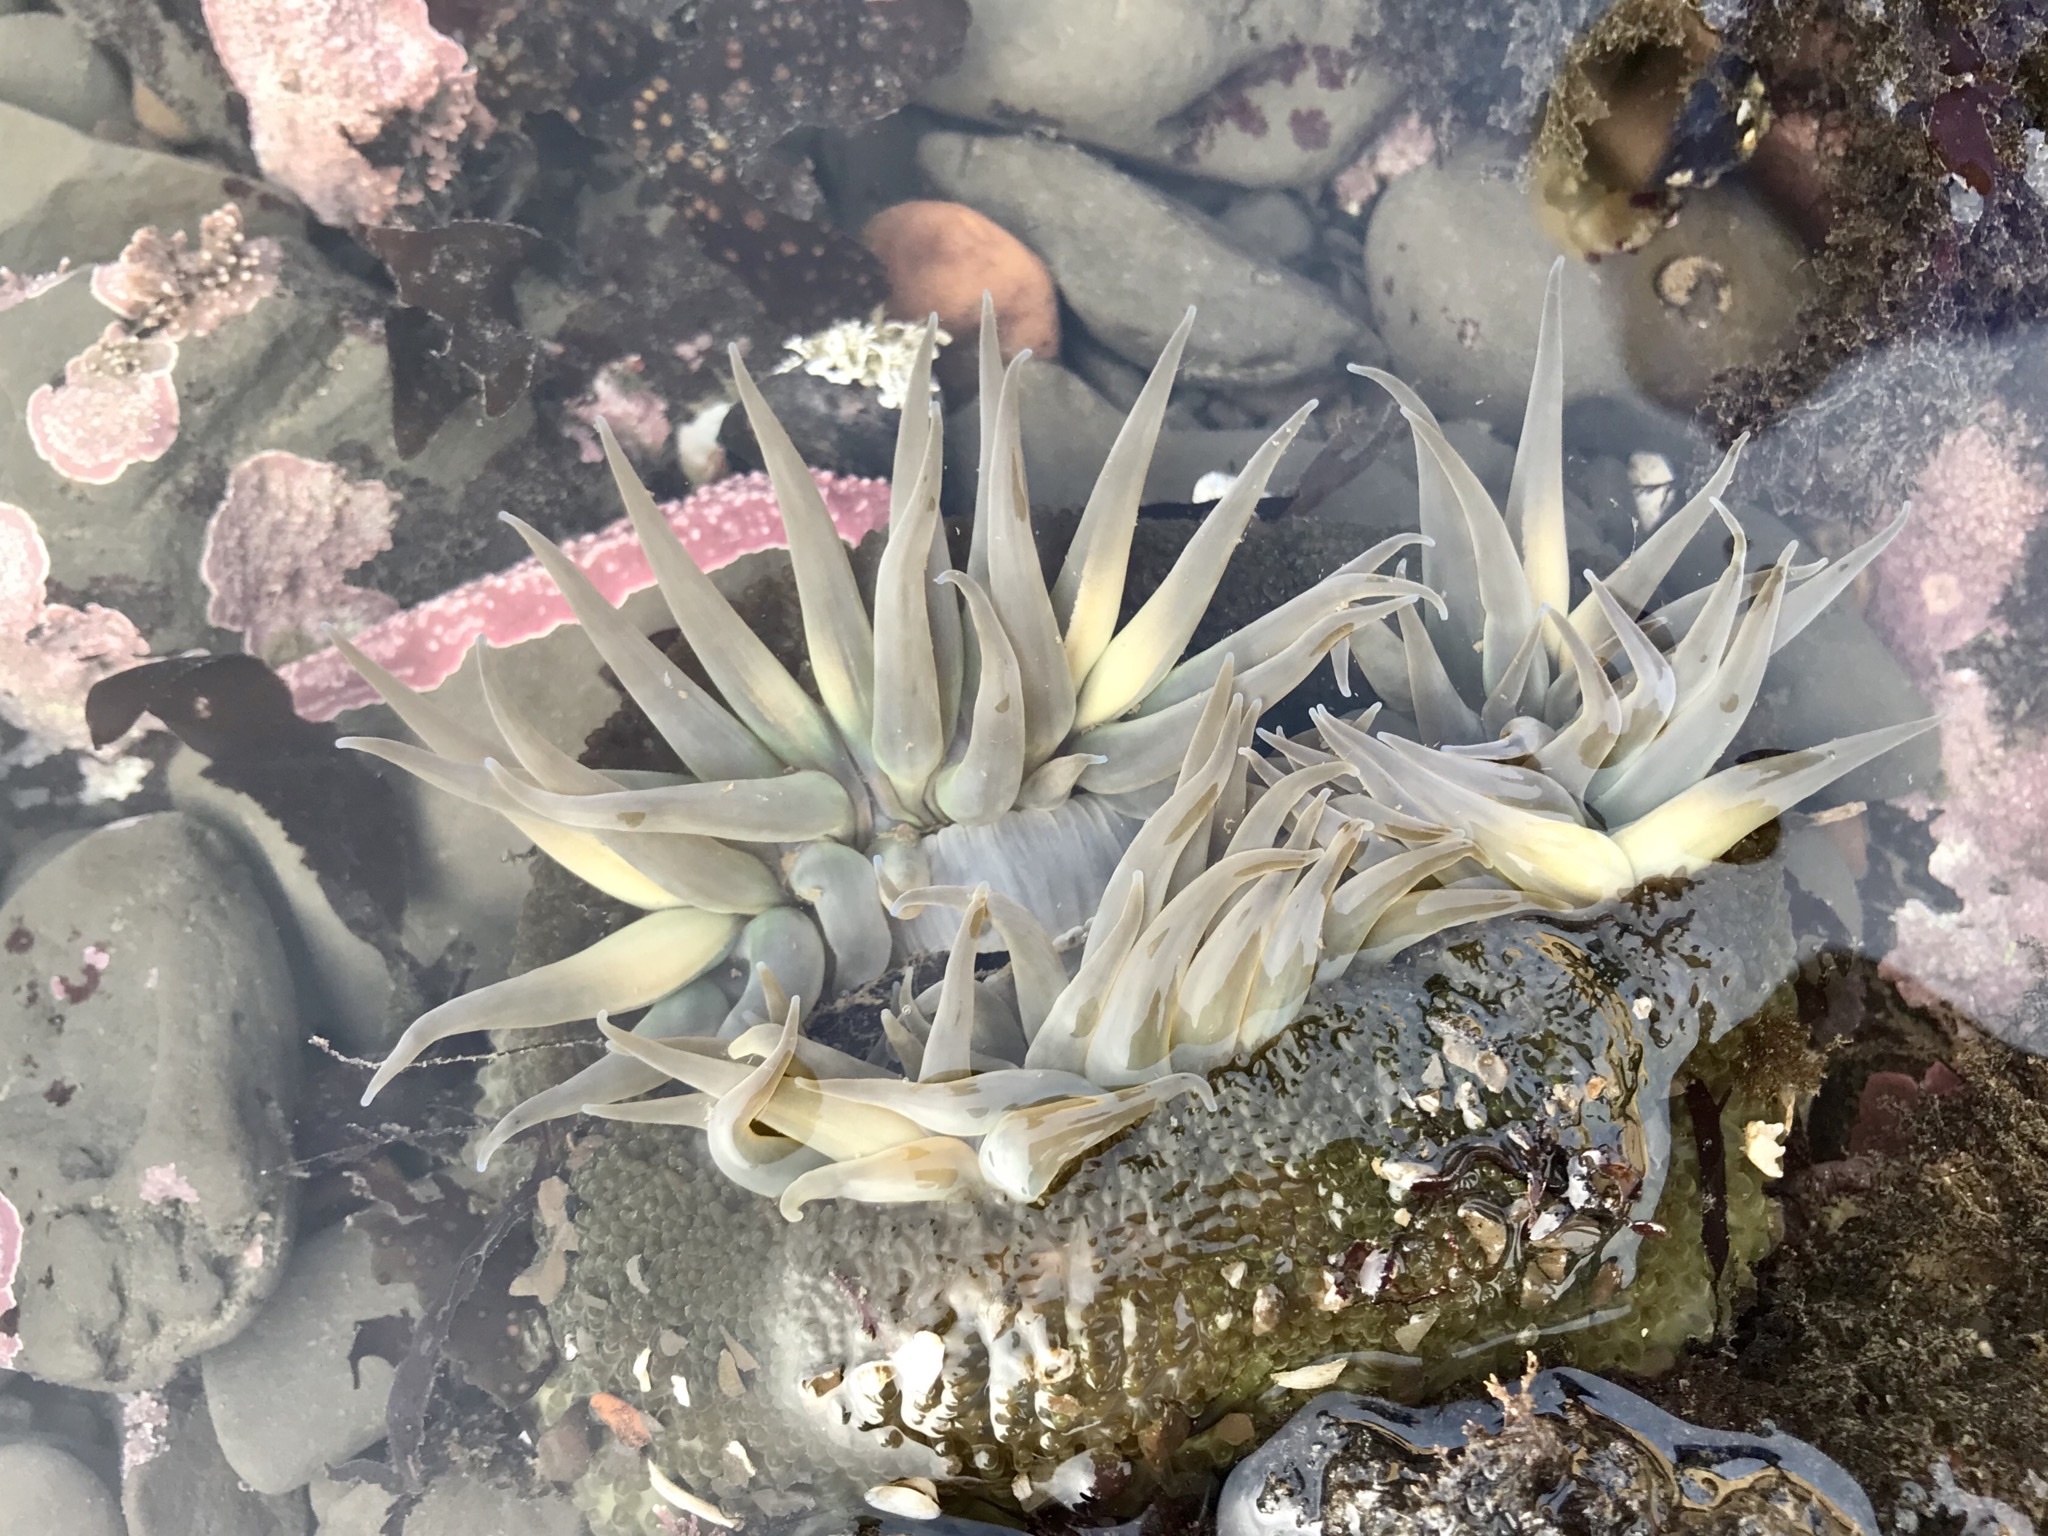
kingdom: Animalia
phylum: Cnidaria
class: Anthozoa
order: Actiniaria
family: Actiniidae
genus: Anthopleura
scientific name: Anthopleura sola
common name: Sun anemone
